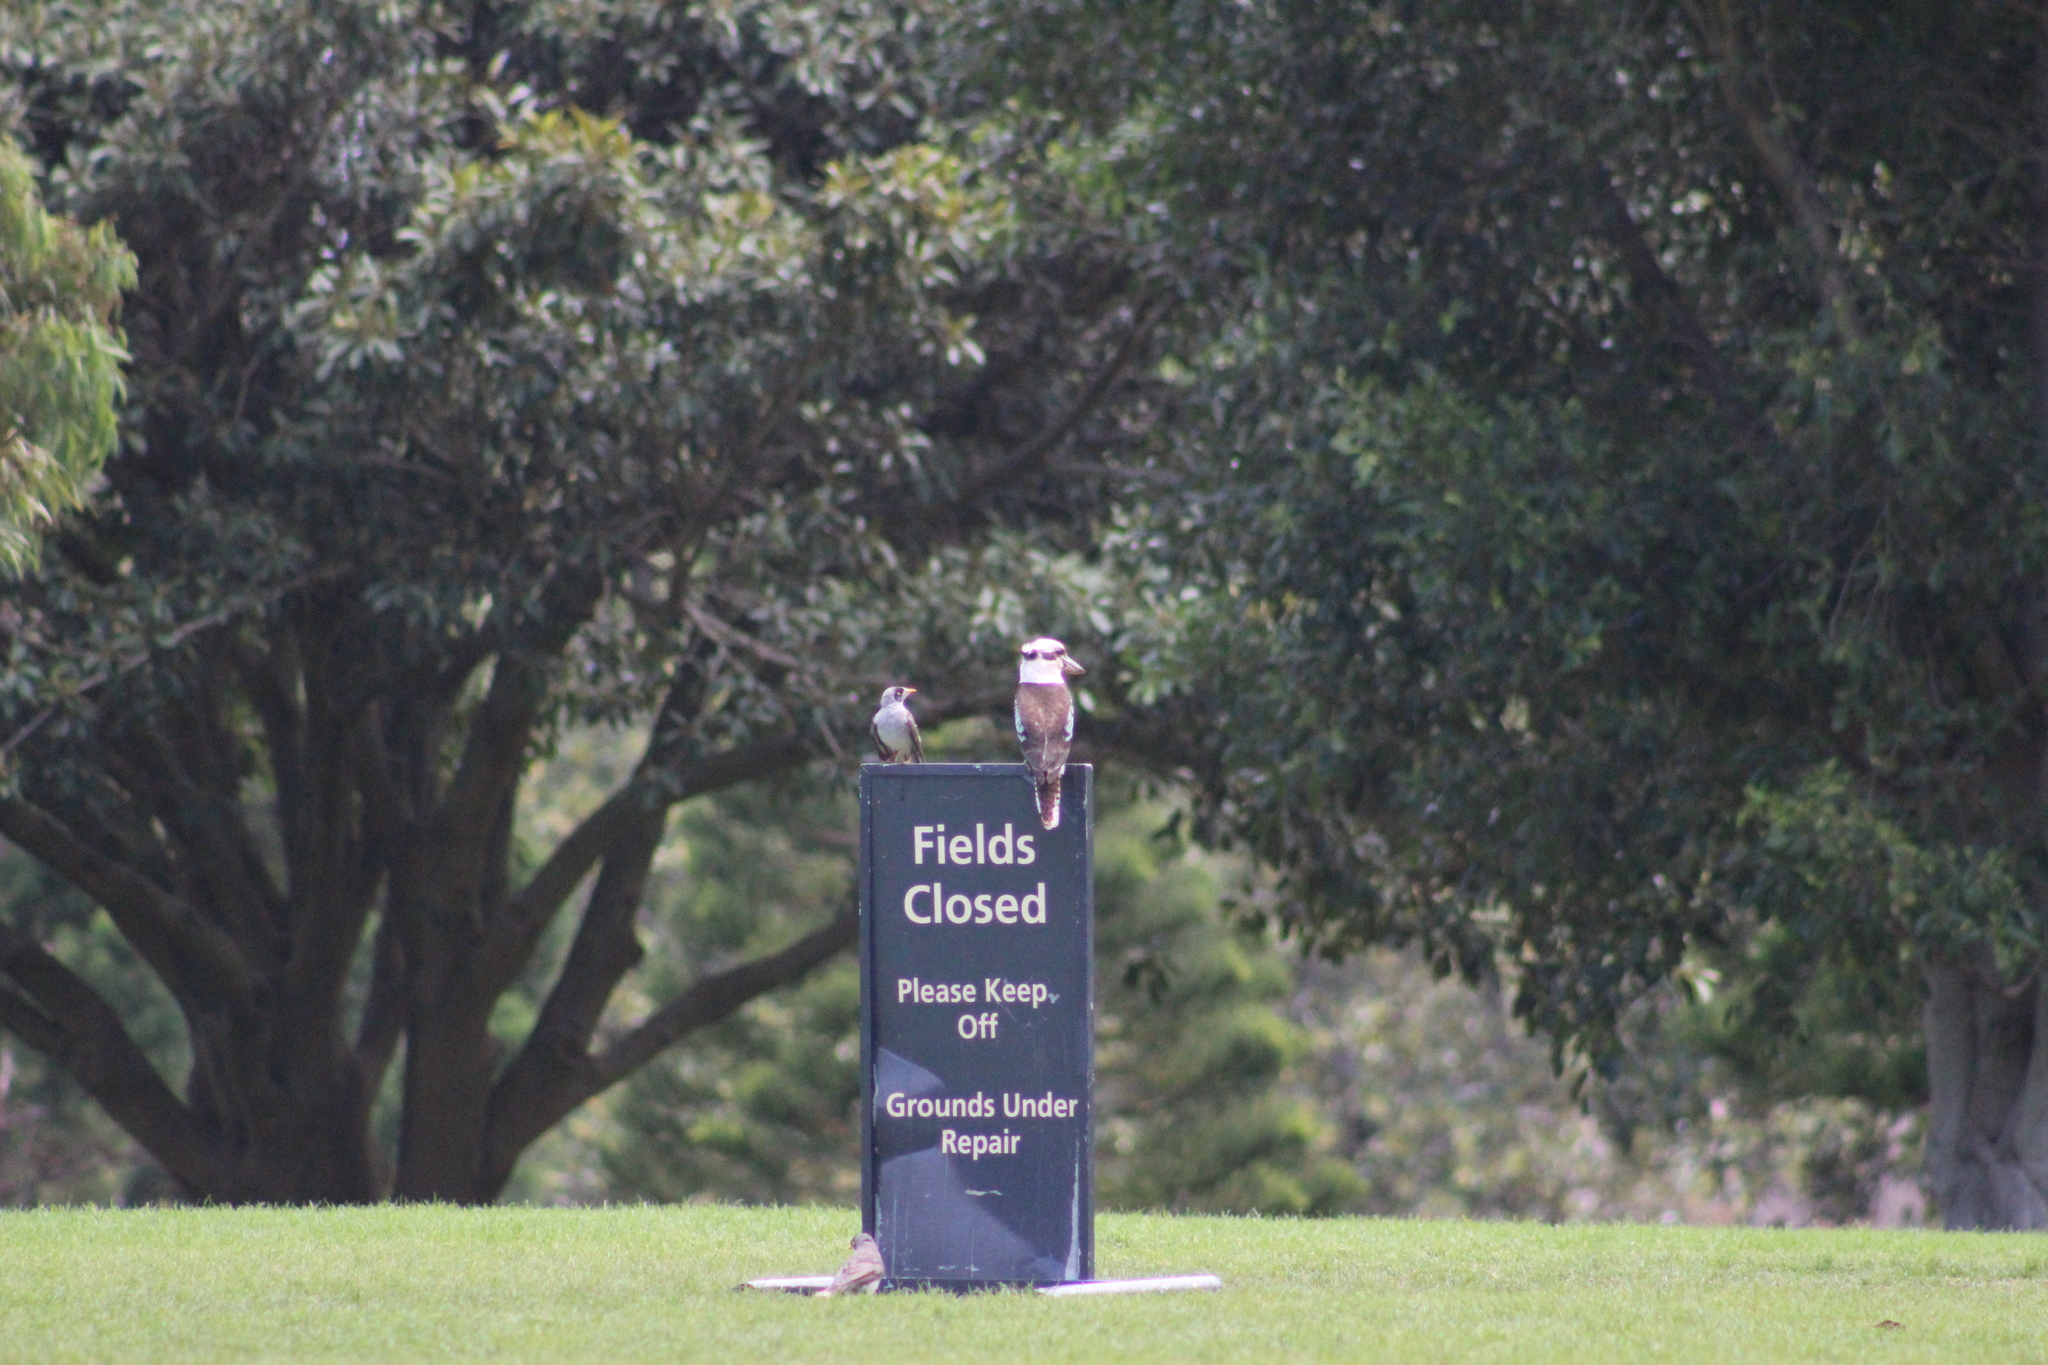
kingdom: Animalia
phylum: Chordata
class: Aves
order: Coraciiformes
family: Alcedinidae
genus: Dacelo
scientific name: Dacelo novaeguineae
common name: Laughing kookaburra
